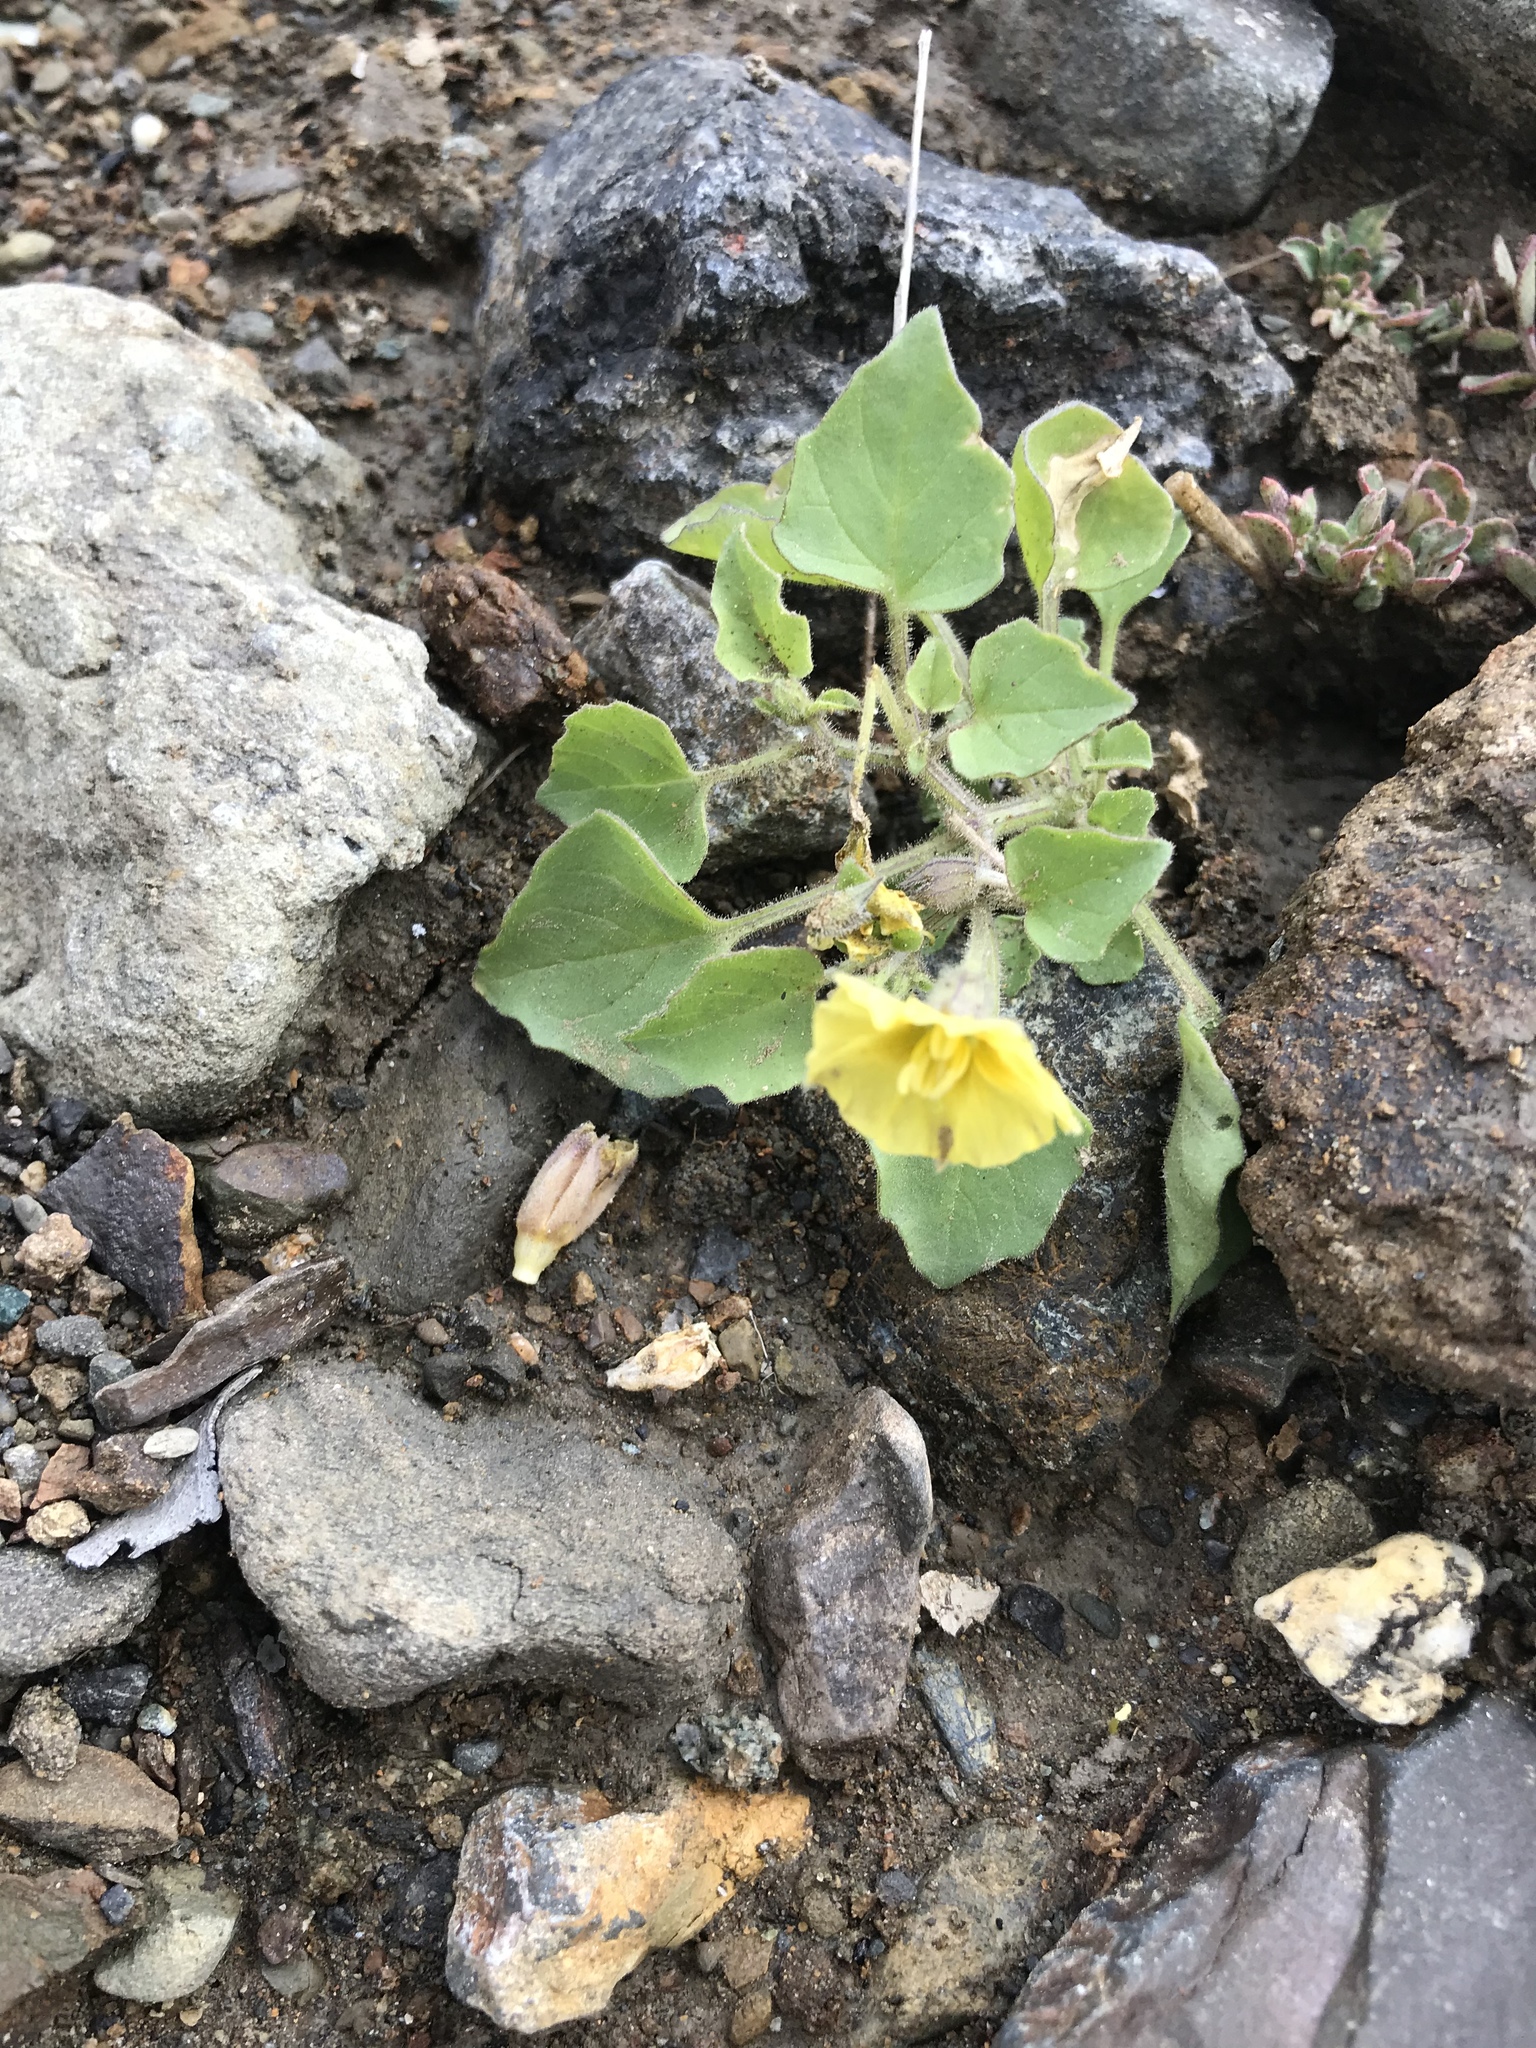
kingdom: Plantae
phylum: Tracheophyta
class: Magnoliopsida
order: Solanales
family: Solanaceae
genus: Physalis
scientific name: Physalis crassifolia
